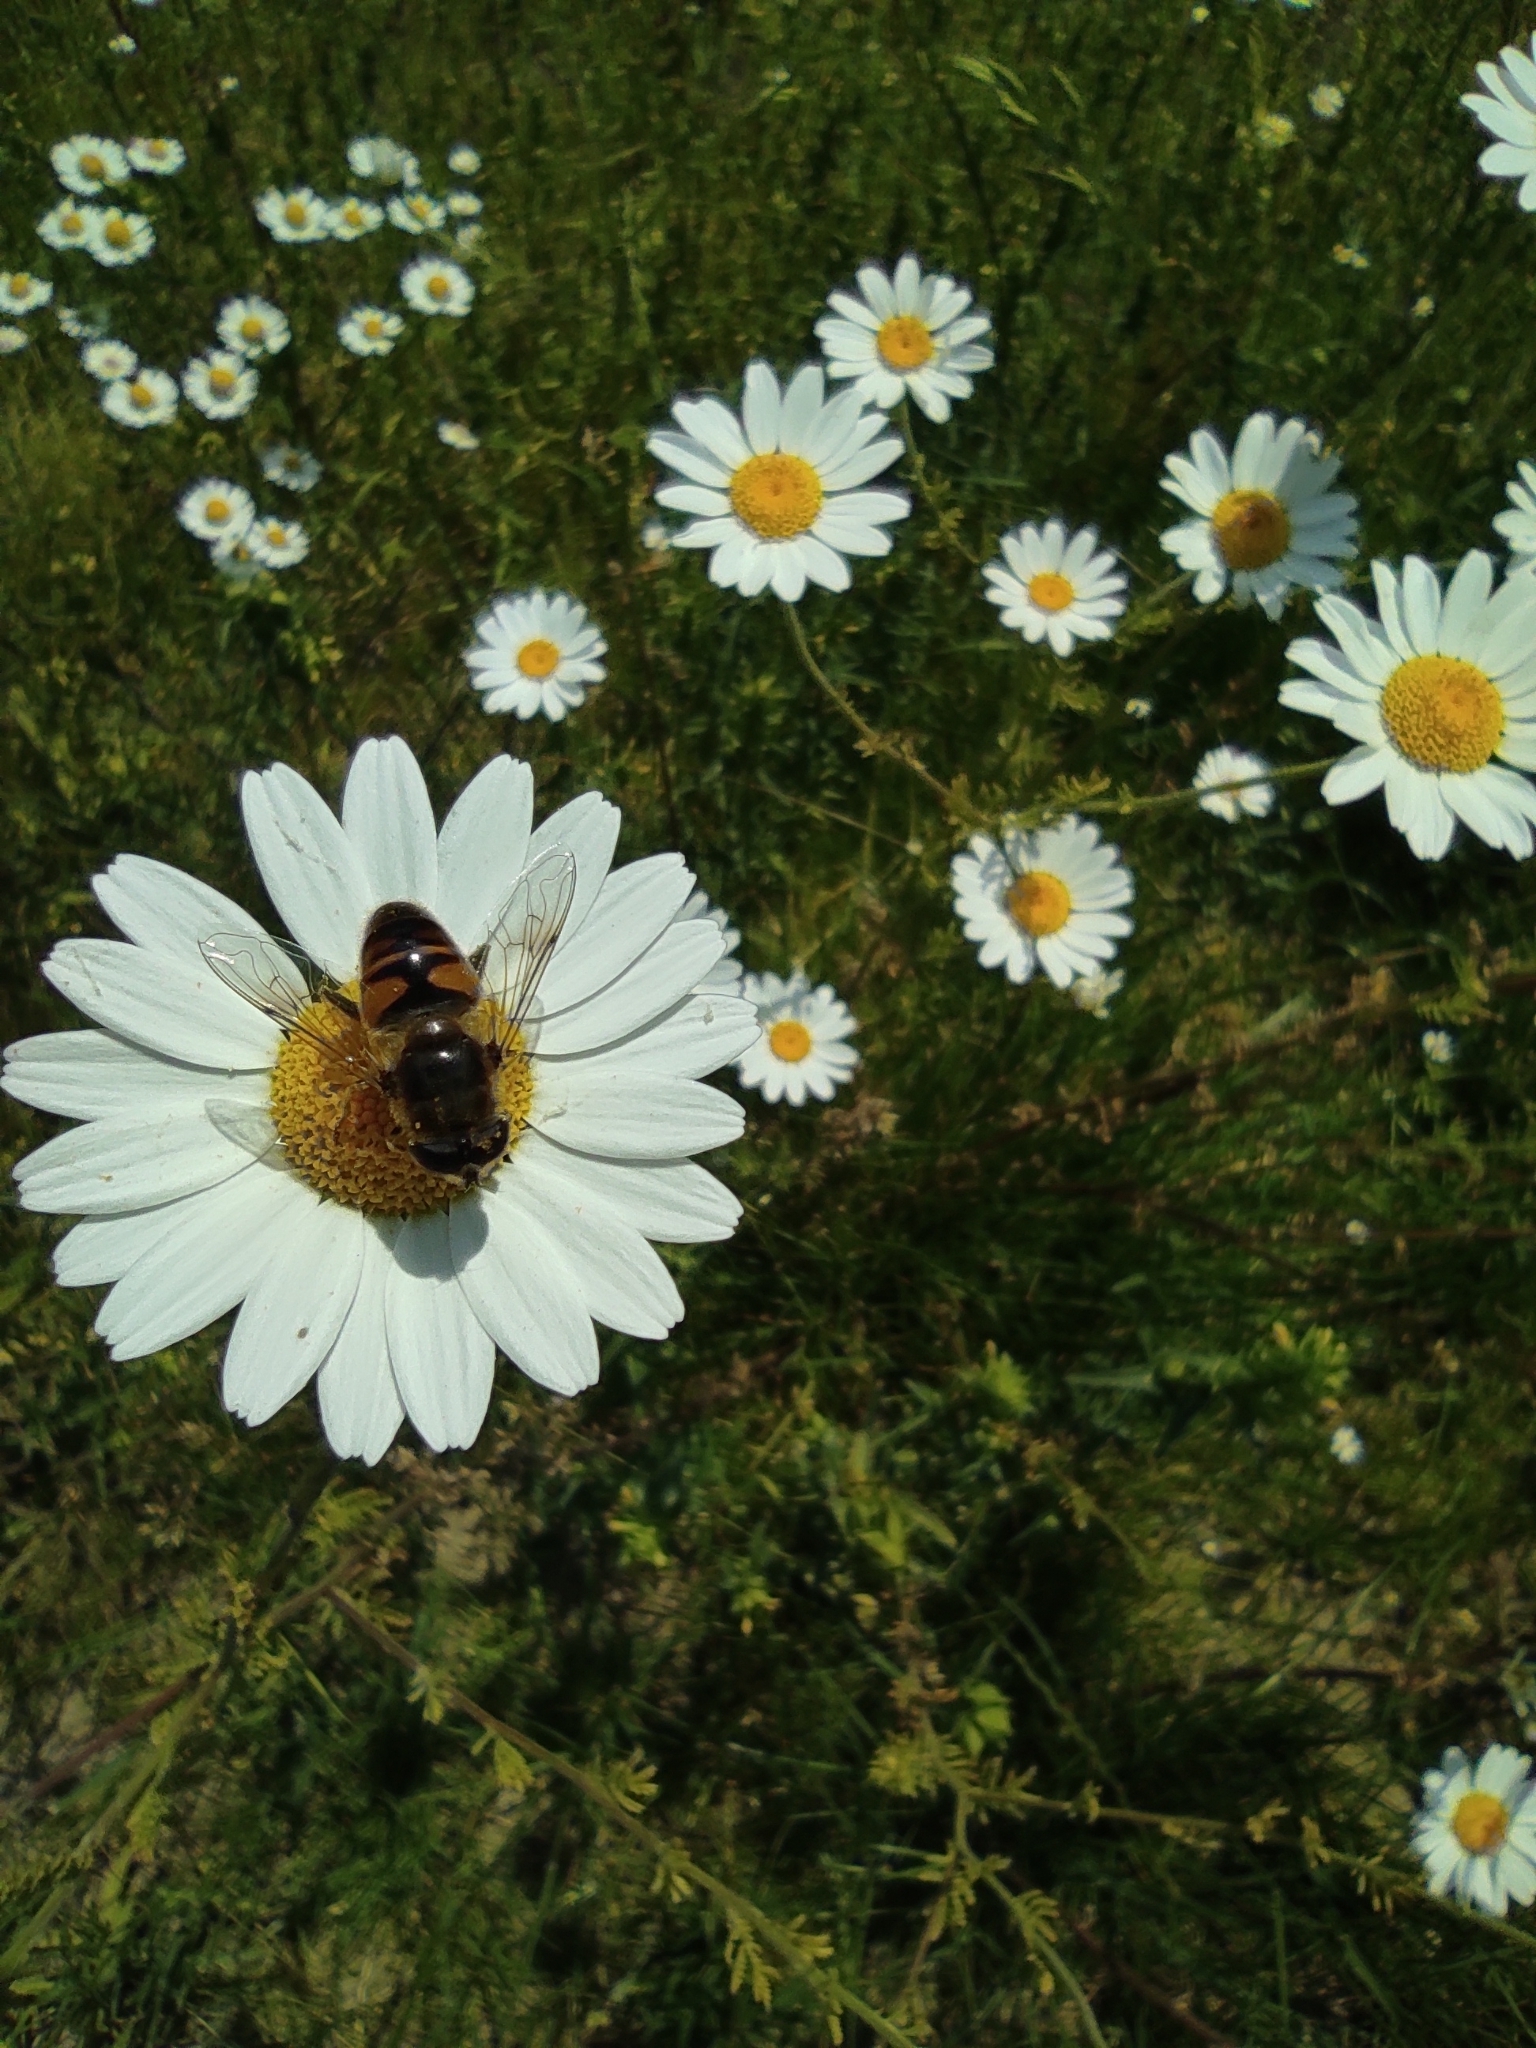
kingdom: Animalia
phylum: Arthropoda
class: Insecta
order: Diptera
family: Syrphidae
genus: Eristalis
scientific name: Eristalis tenax
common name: Drone fly
